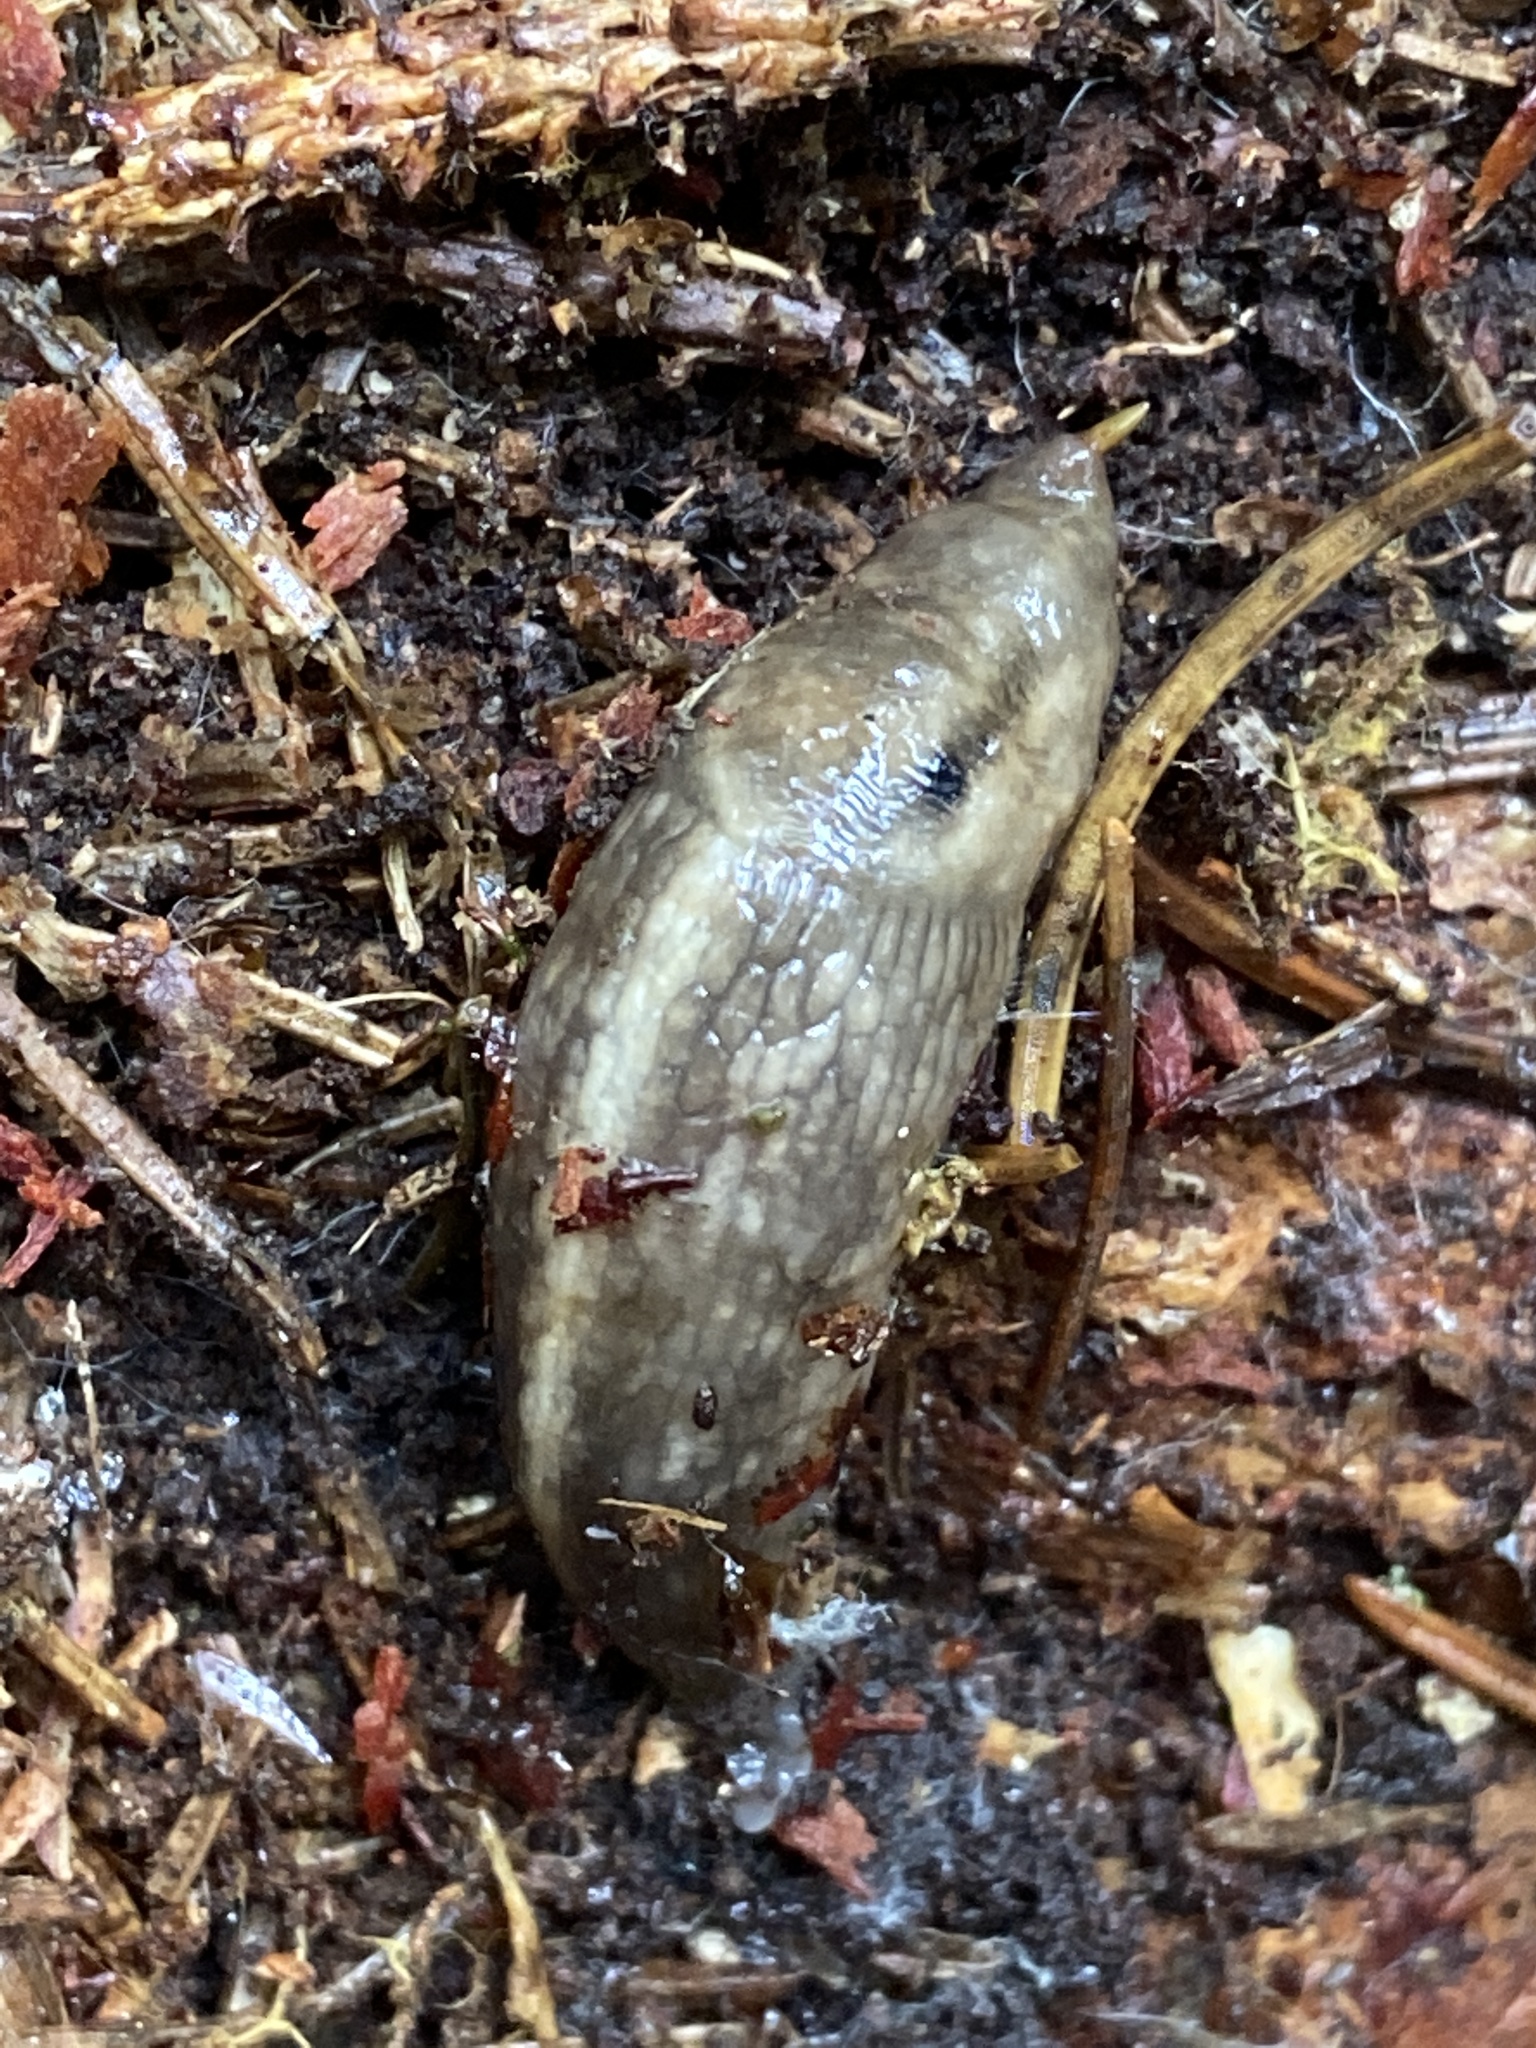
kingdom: Animalia
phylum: Mollusca
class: Gastropoda
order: Stylommatophora
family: Limacidae
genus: Lehmannia
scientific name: Lehmannia marginata
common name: Tree slug
